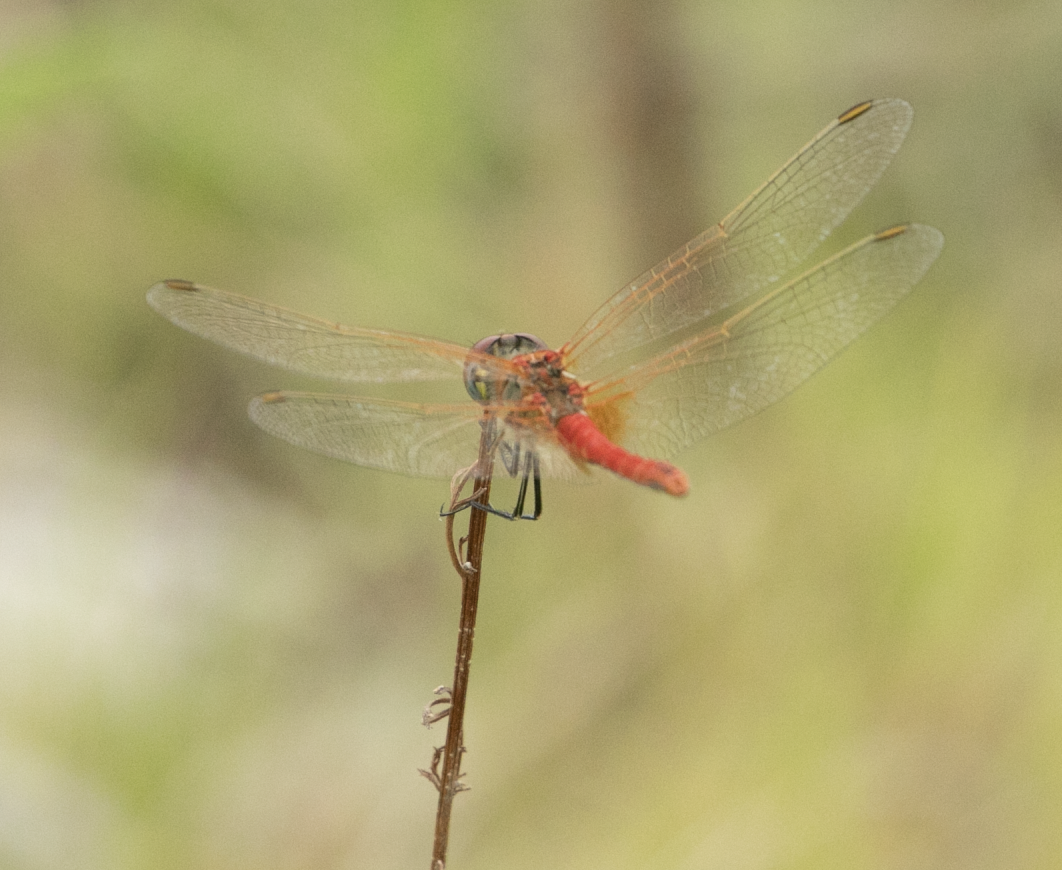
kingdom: Animalia
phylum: Arthropoda
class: Insecta
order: Odonata
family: Libellulidae
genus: Sympetrum
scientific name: Sympetrum fonscolombii
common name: Red-veined darter
